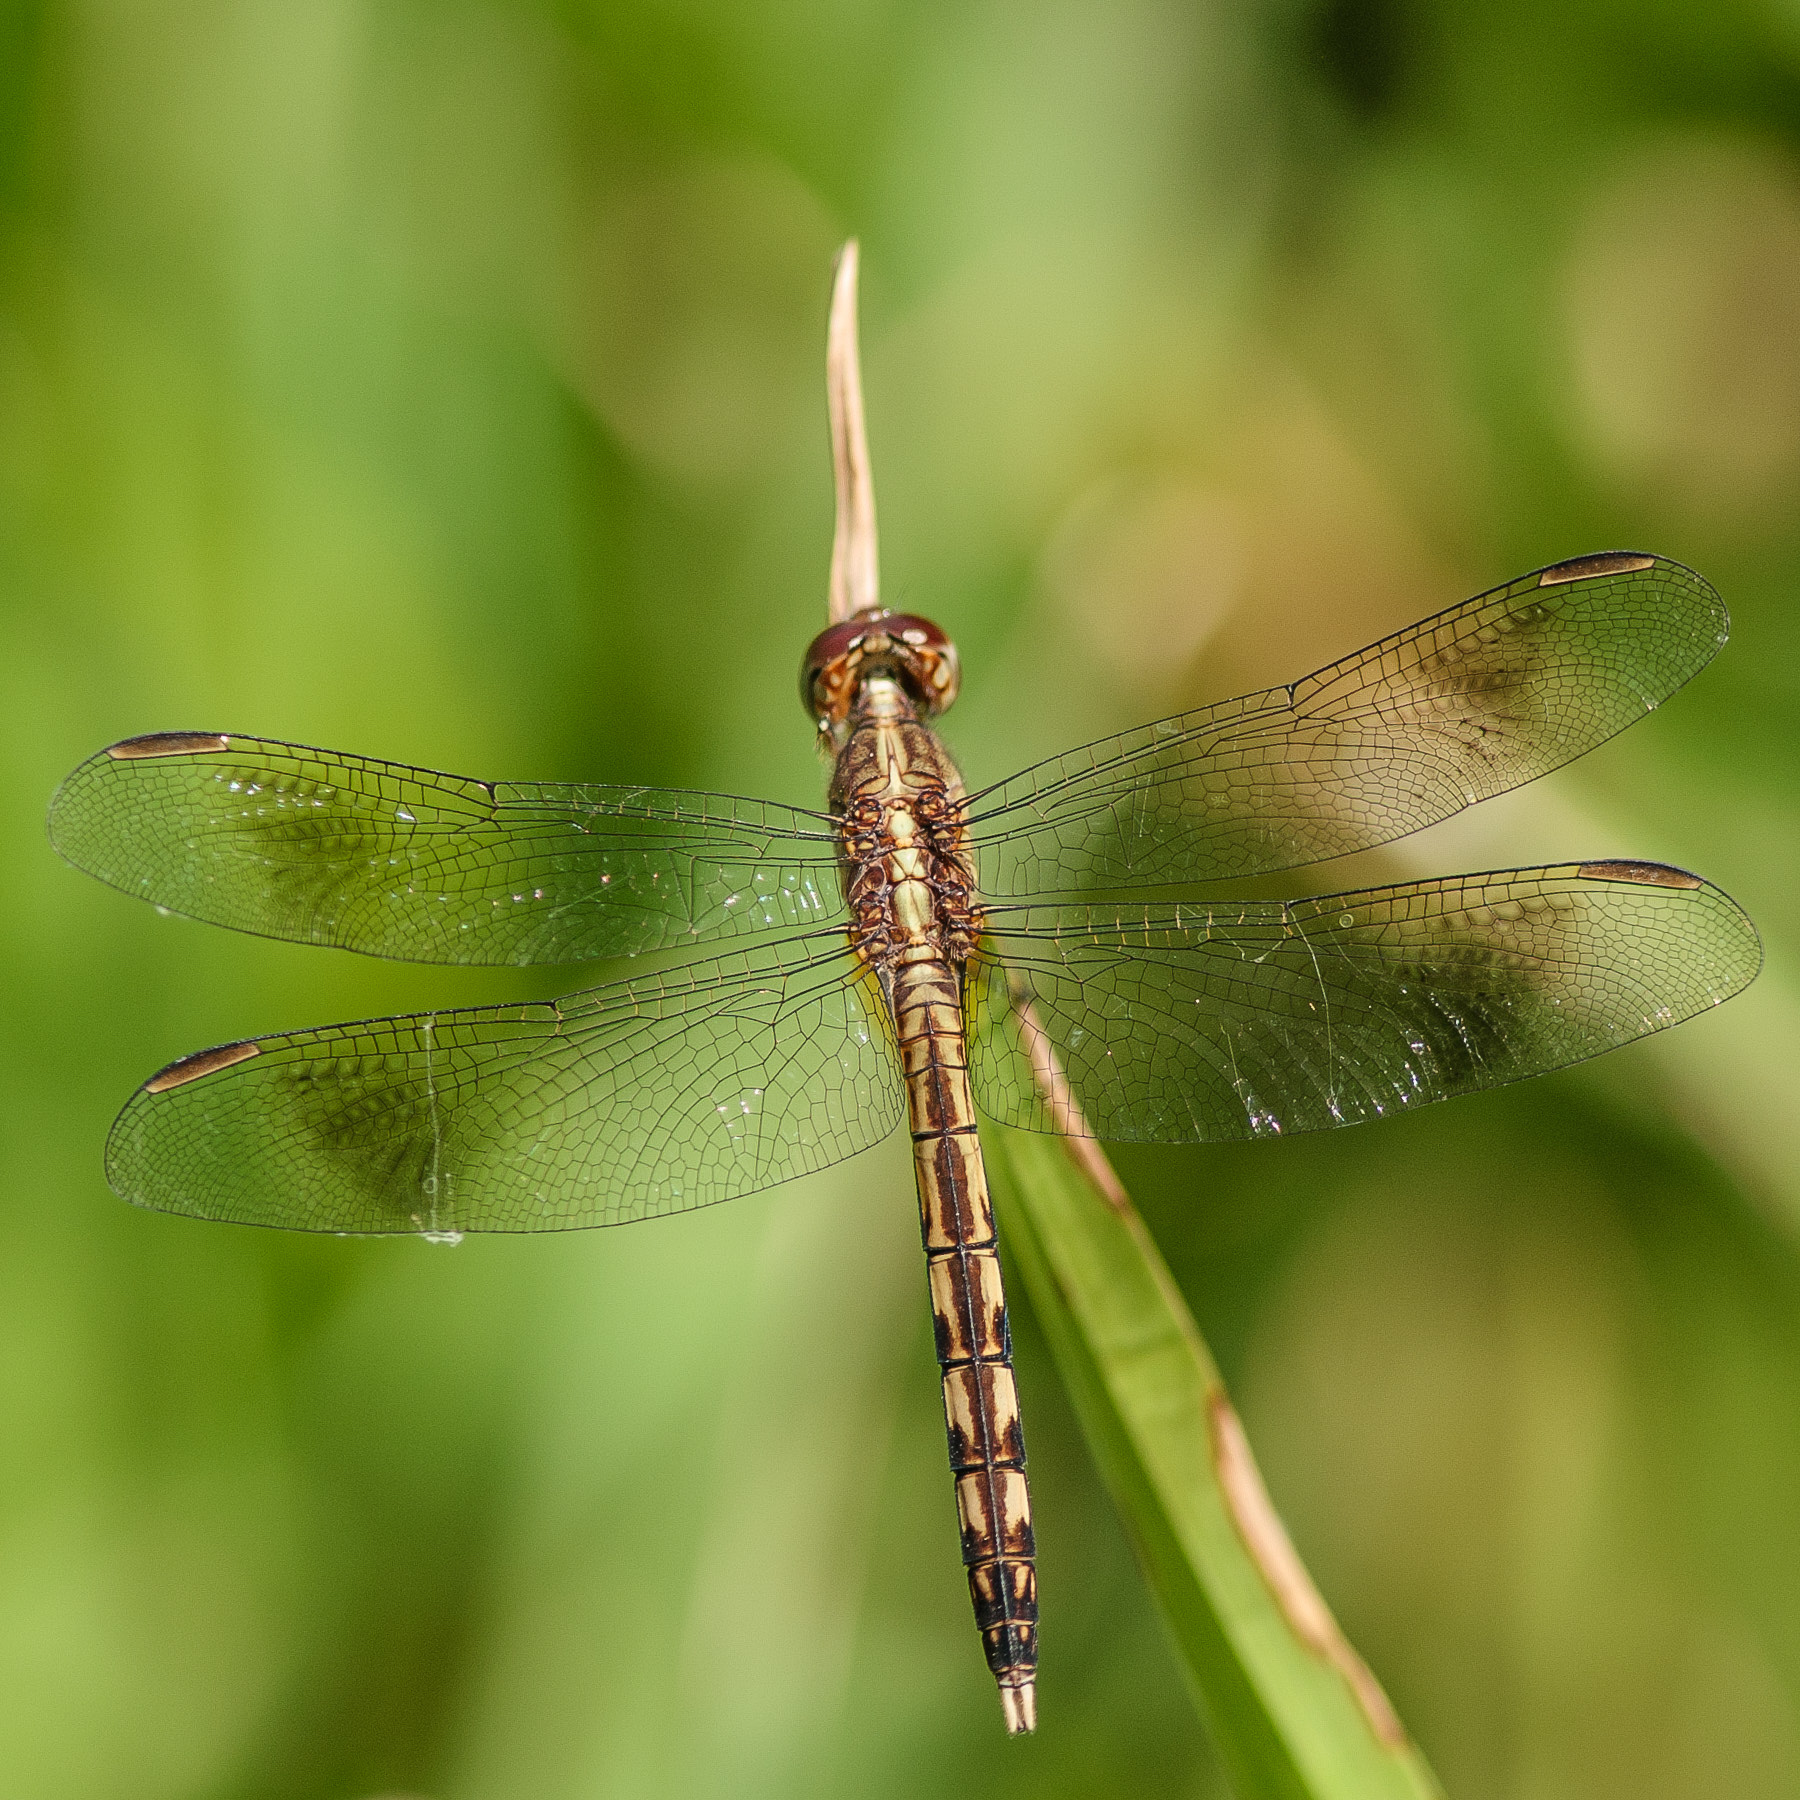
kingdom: Animalia
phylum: Arthropoda
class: Insecta
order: Odonata
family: Libellulidae
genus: Erythrodiplax
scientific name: Erythrodiplax umbrata
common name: Band-winged dragonlet
